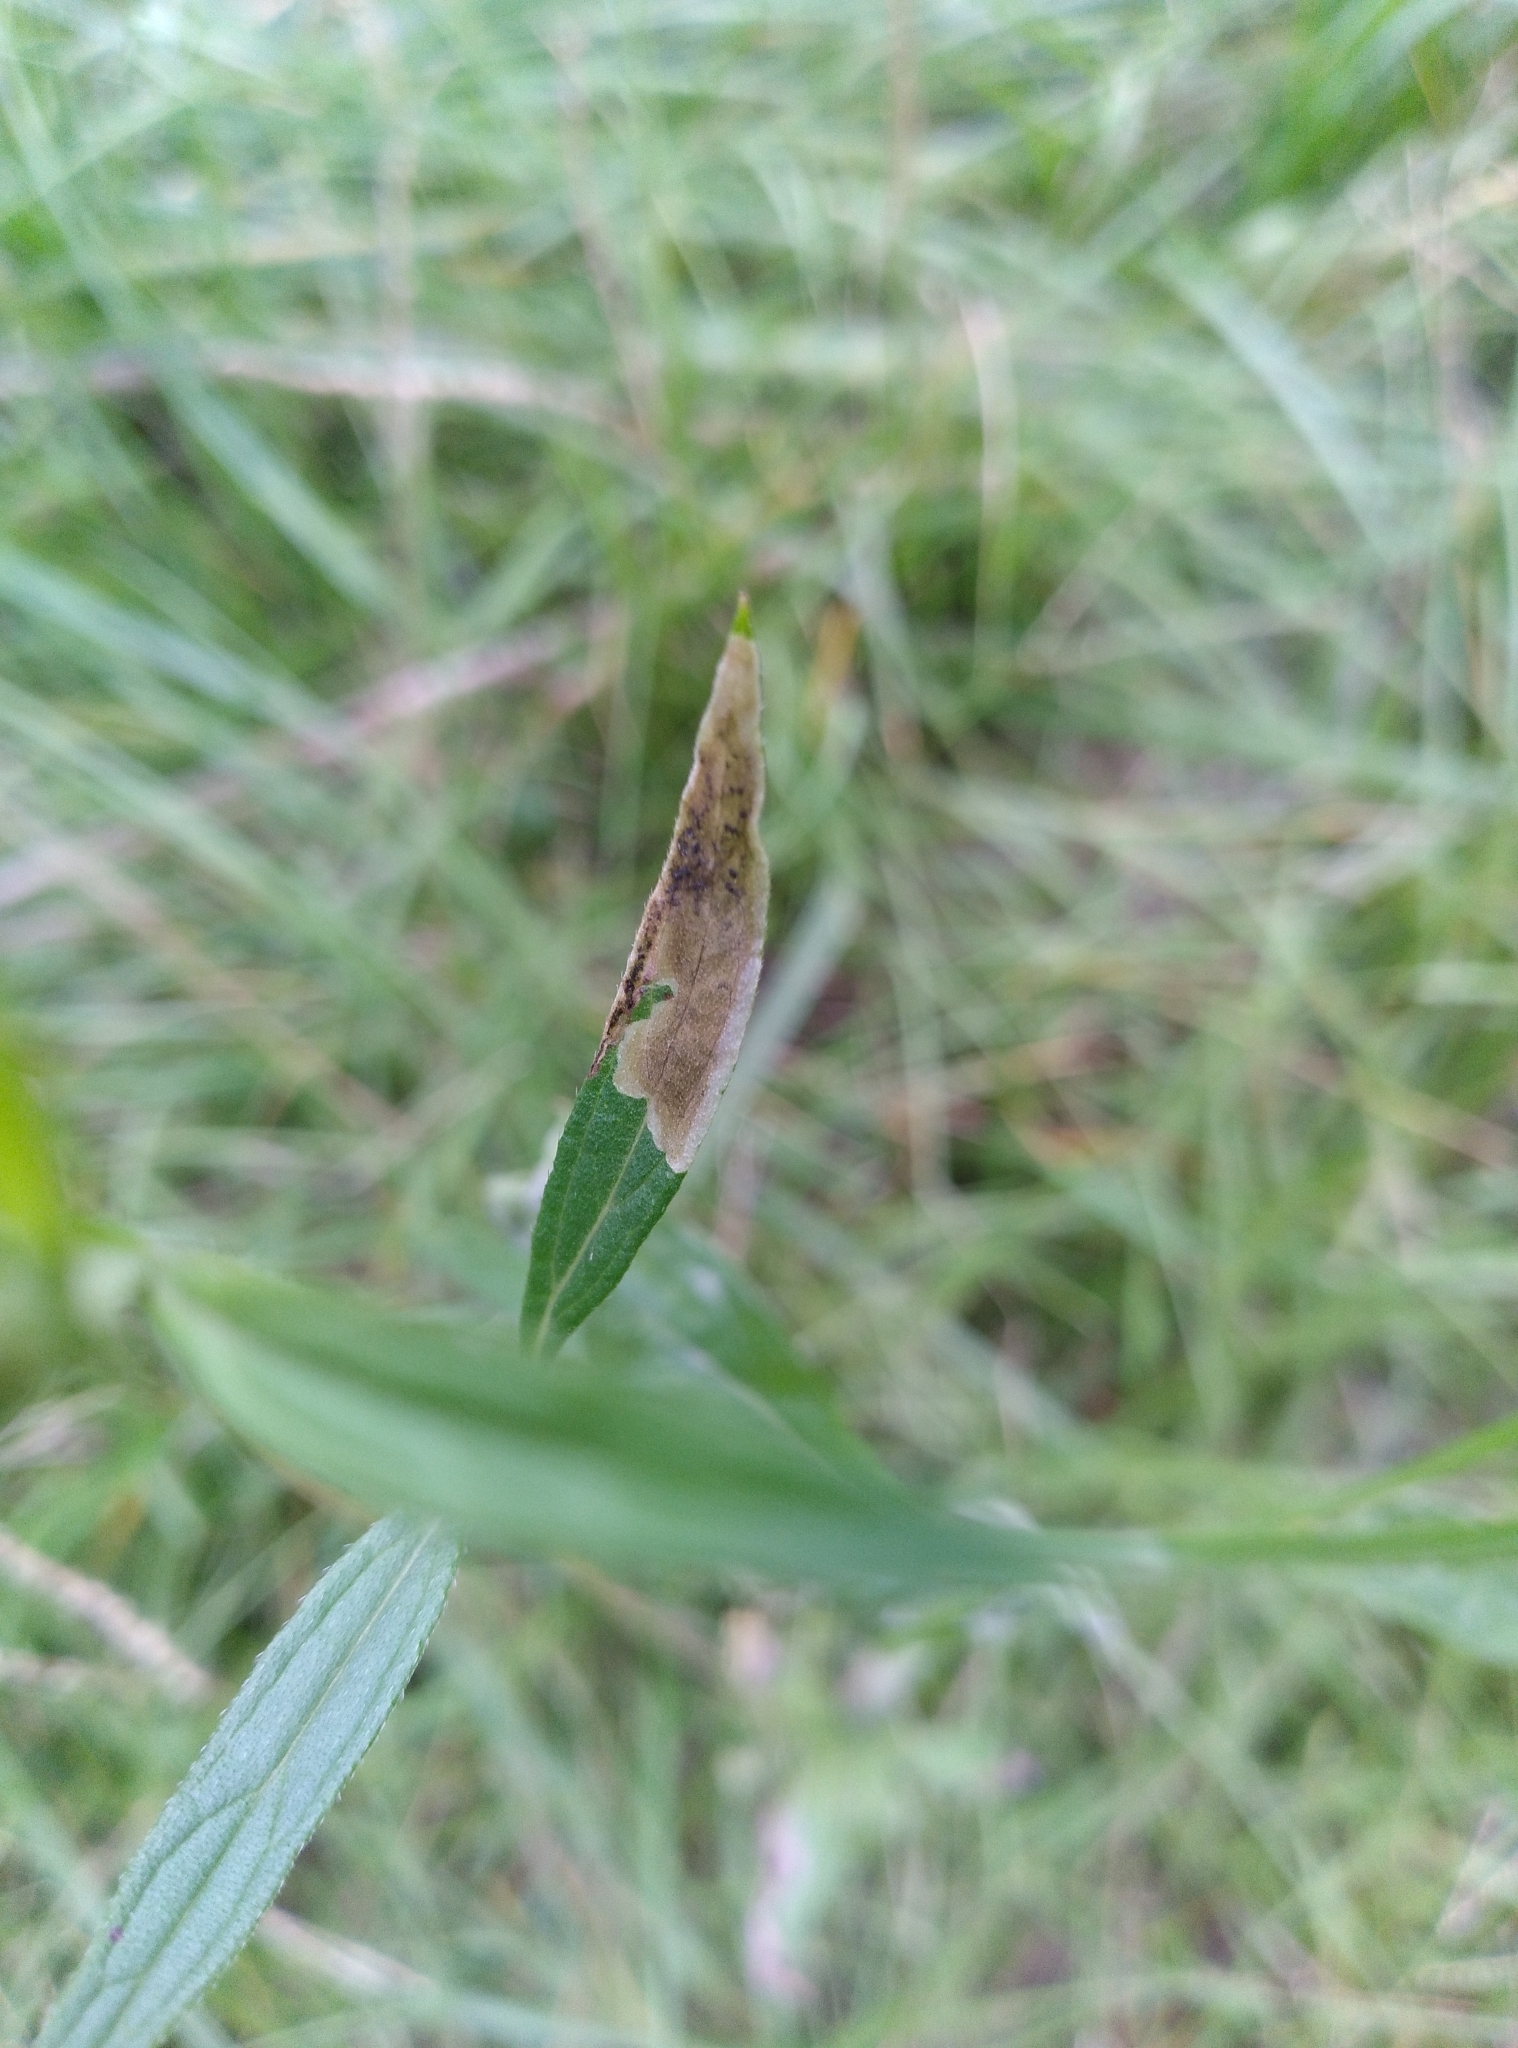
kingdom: Animalia
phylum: Arthropoda
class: Insecta
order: Diptera
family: Agromyzidae
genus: Calycomyza
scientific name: Calycomyza verbenae
